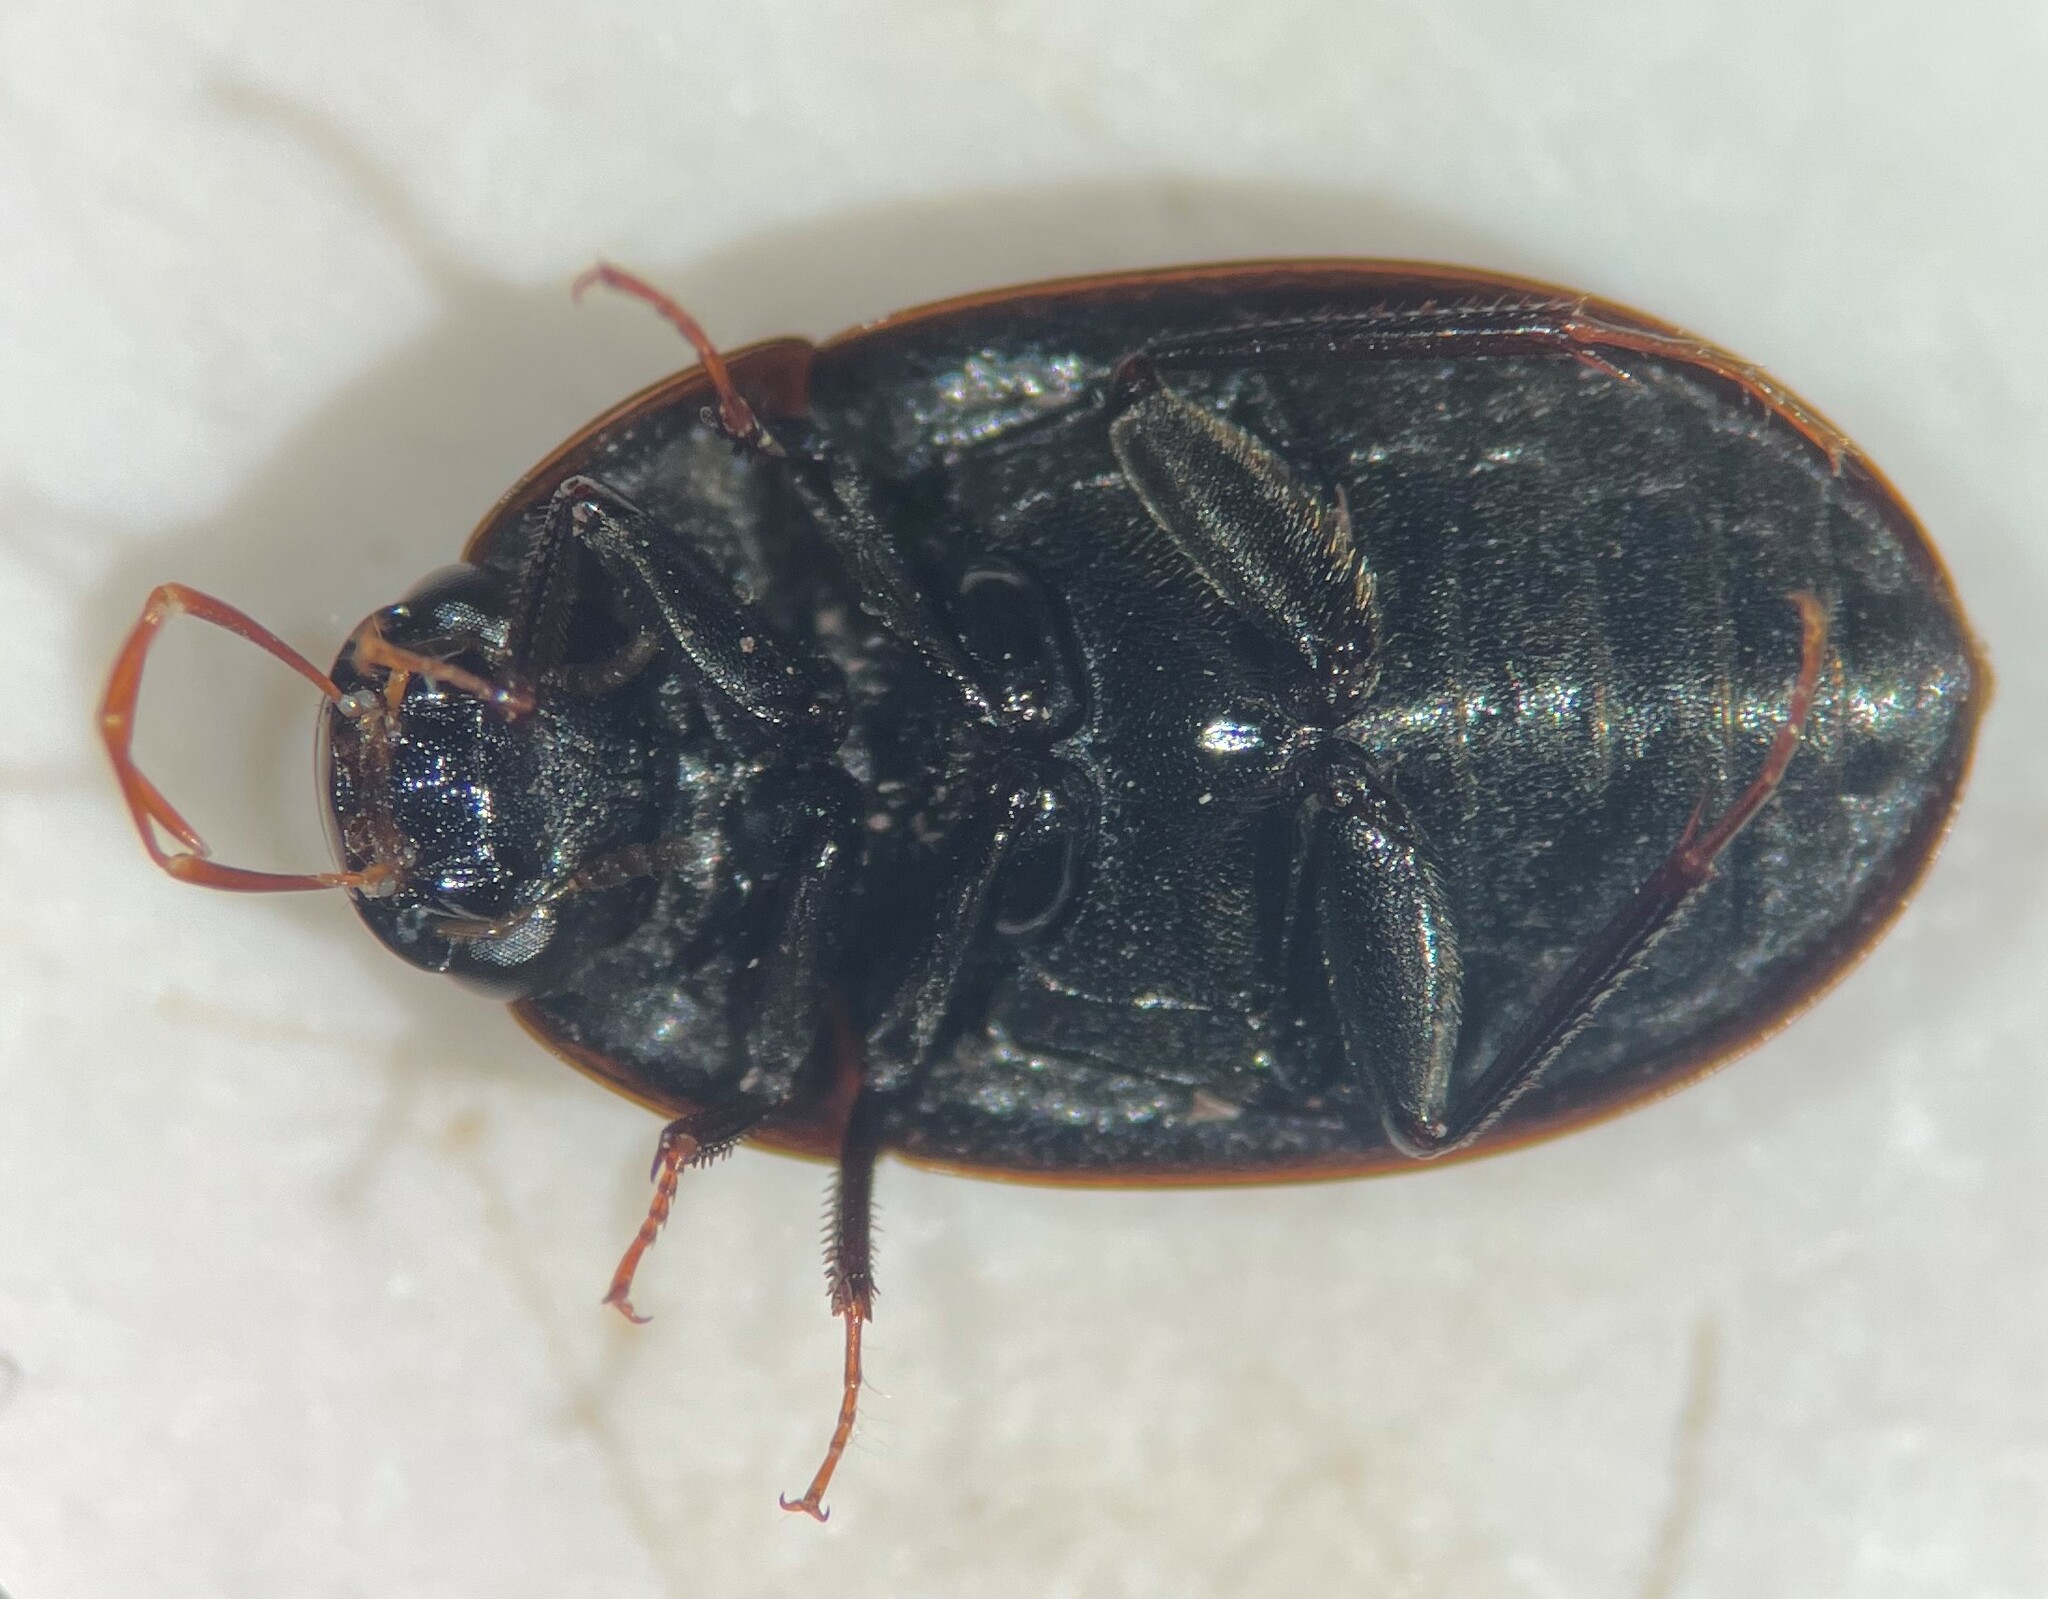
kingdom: Animalia
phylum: Arthropoda
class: Insecta
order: Coleoptera
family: Hydrophilidae
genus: Cymbiodyta
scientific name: Cymbiodyta bifida
